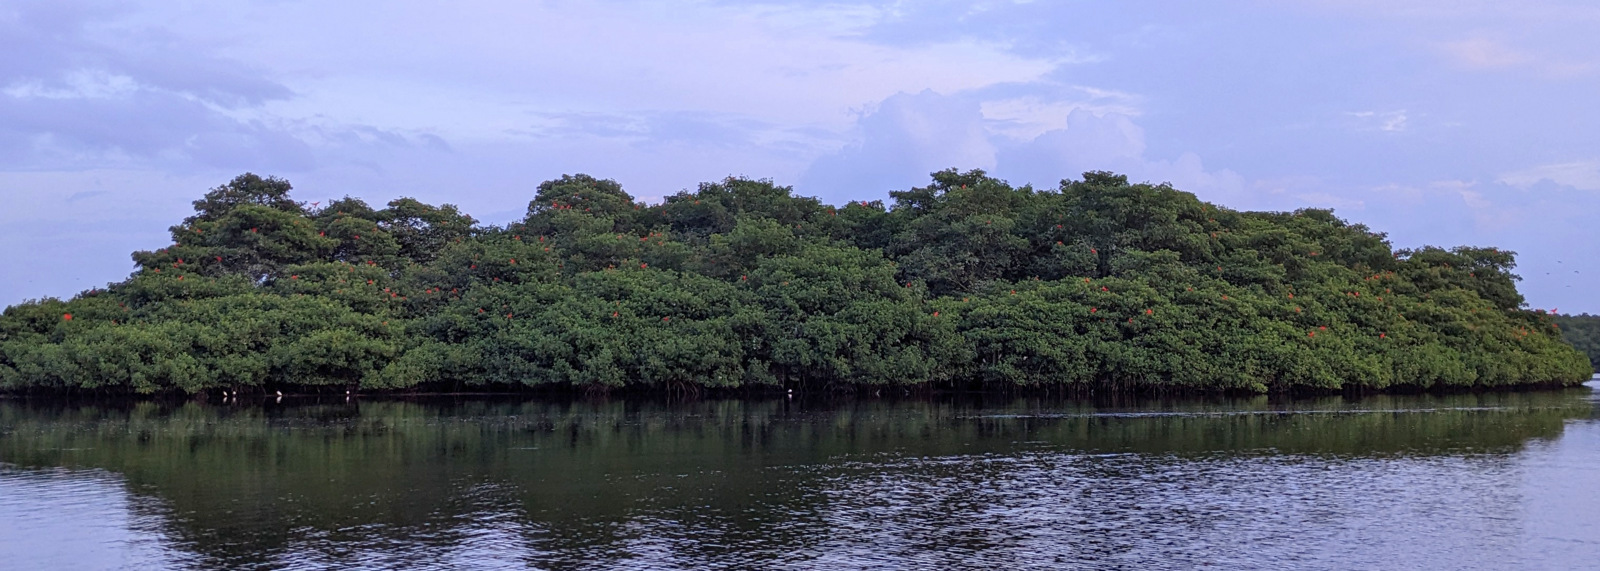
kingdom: Animalia
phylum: Chordata
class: Aves
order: Pelecaniformes
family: Threskiornithidae
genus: Eudocimus
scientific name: Eudocimus ruber
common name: Scarlet ibis
